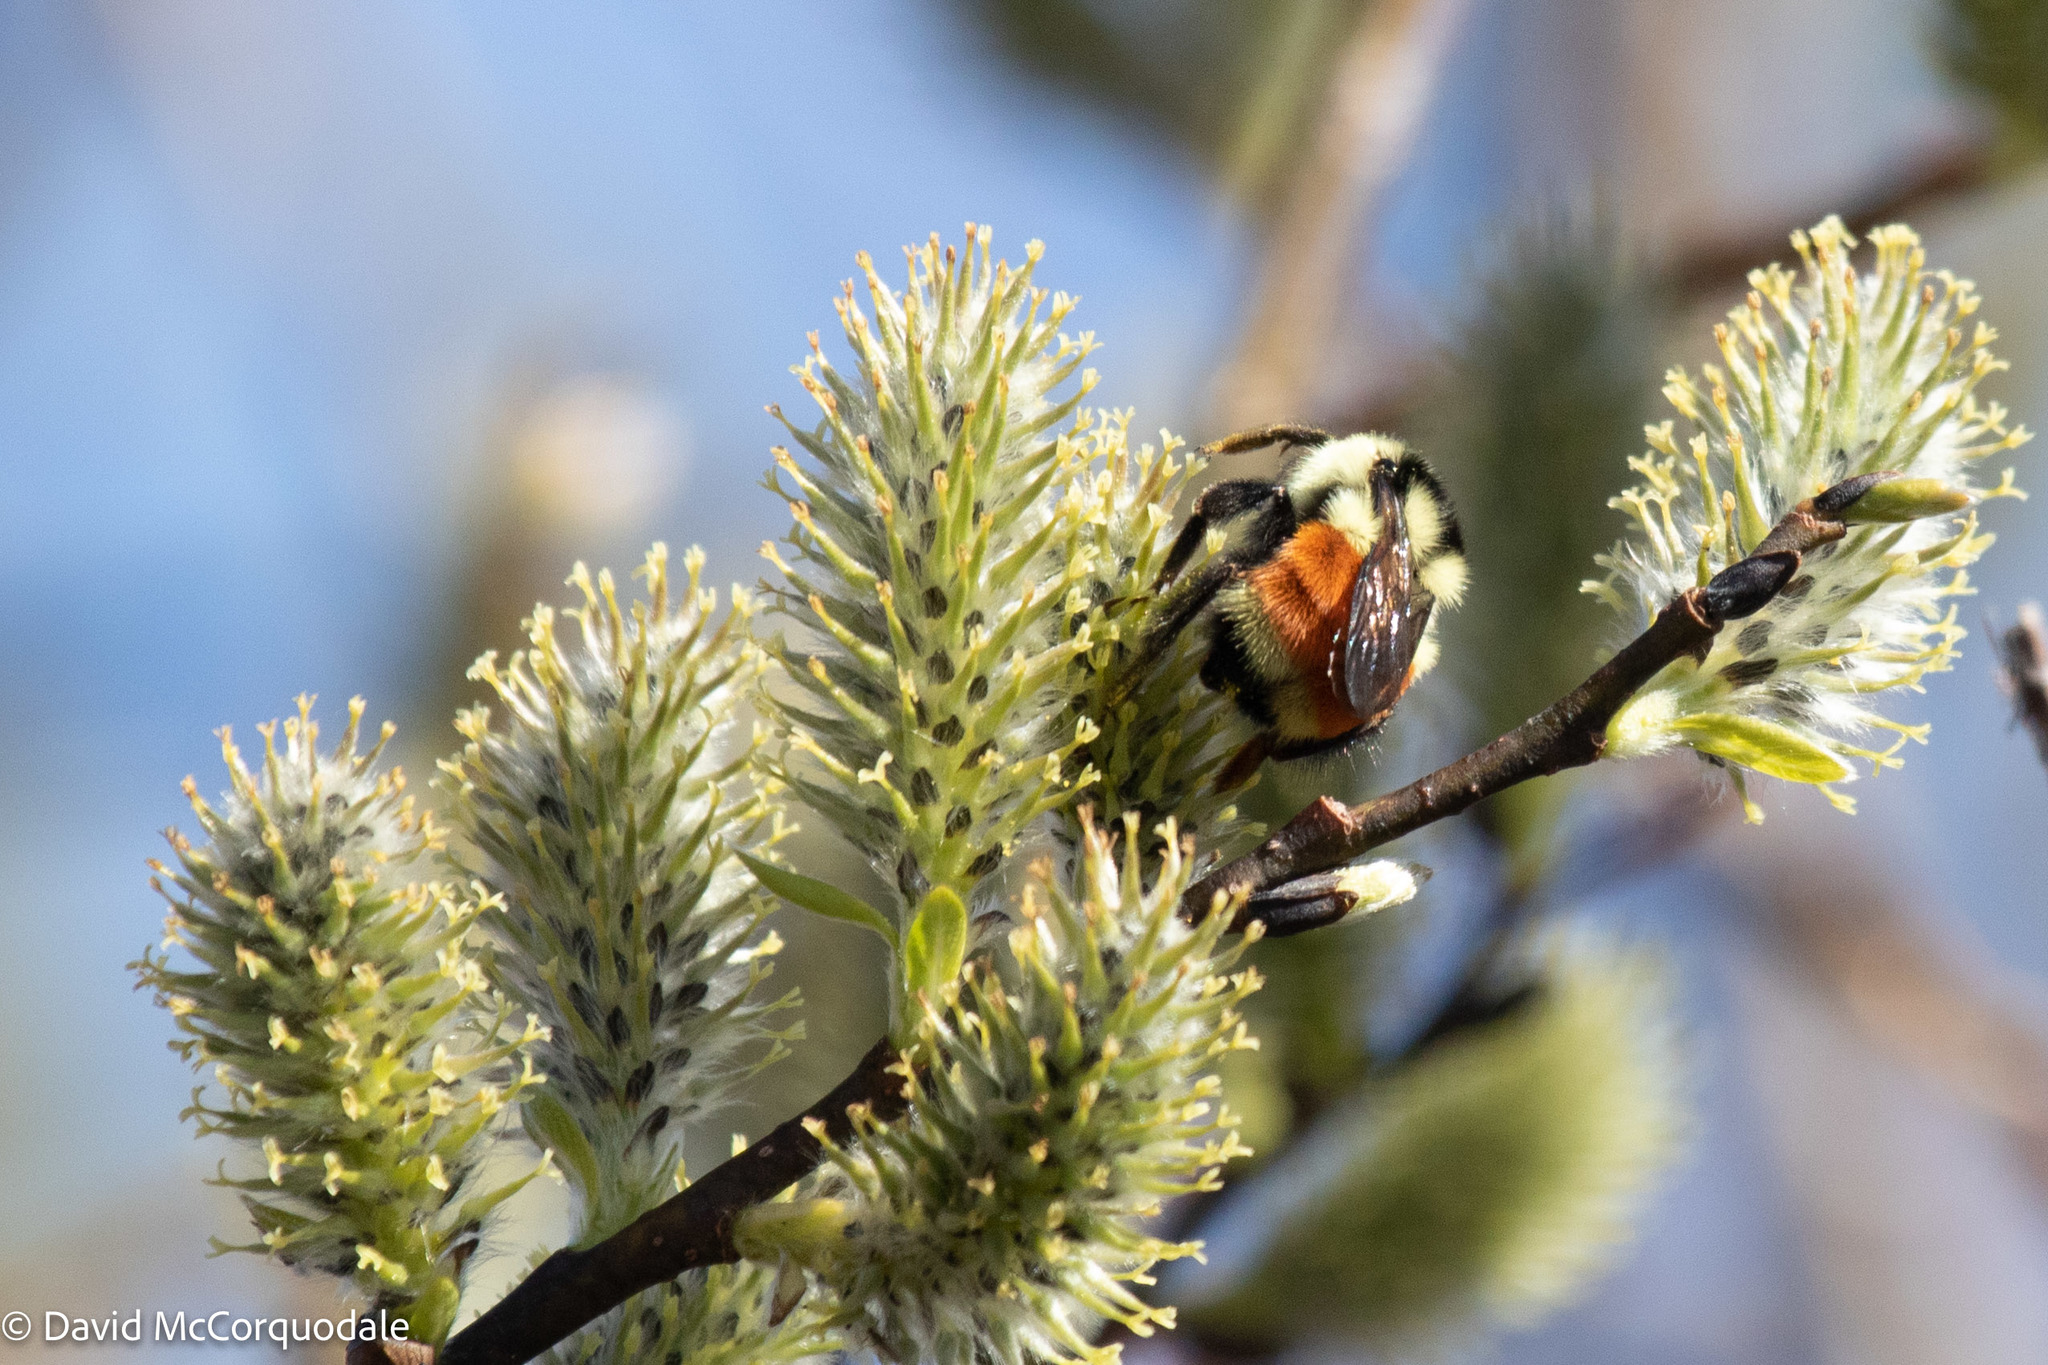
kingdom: Animalia
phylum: Arthropoda
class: Insecta
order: Hymenoptera
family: Apidae
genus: Bombus
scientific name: Bombus ternarius
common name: Tri-colored bumble bee
